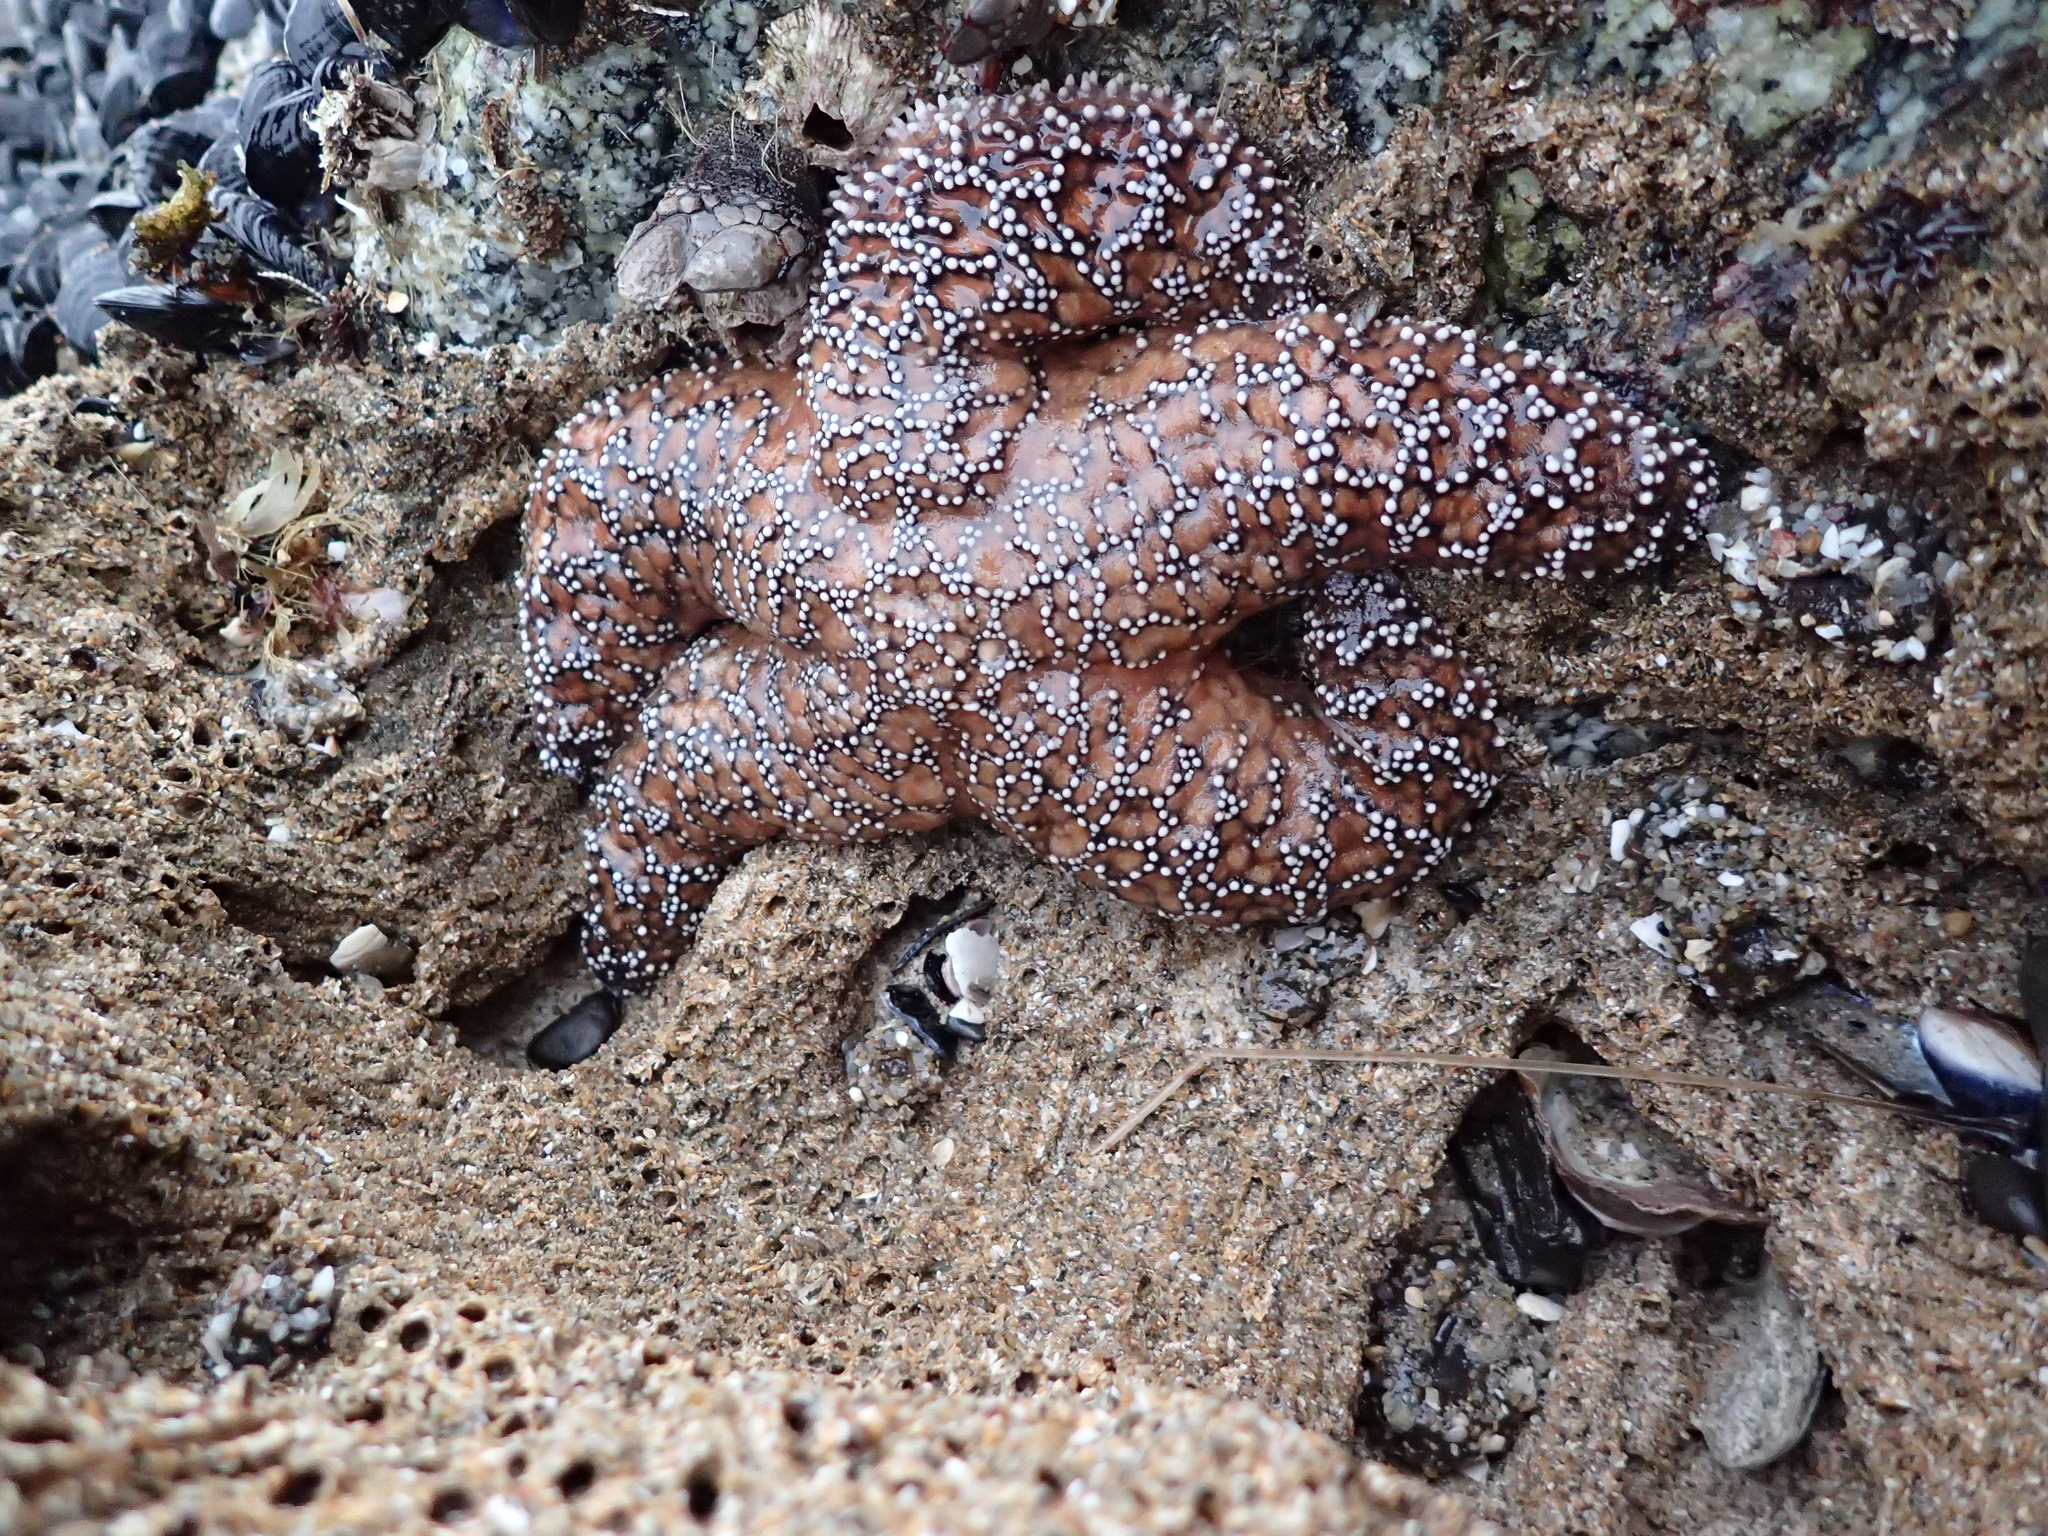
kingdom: Animalia
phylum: Echinodermata
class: Asteroidea
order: Forcipulatida
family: Asteriidae
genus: Pisaster
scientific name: Pisaster ochraceus
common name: Ochre stars
